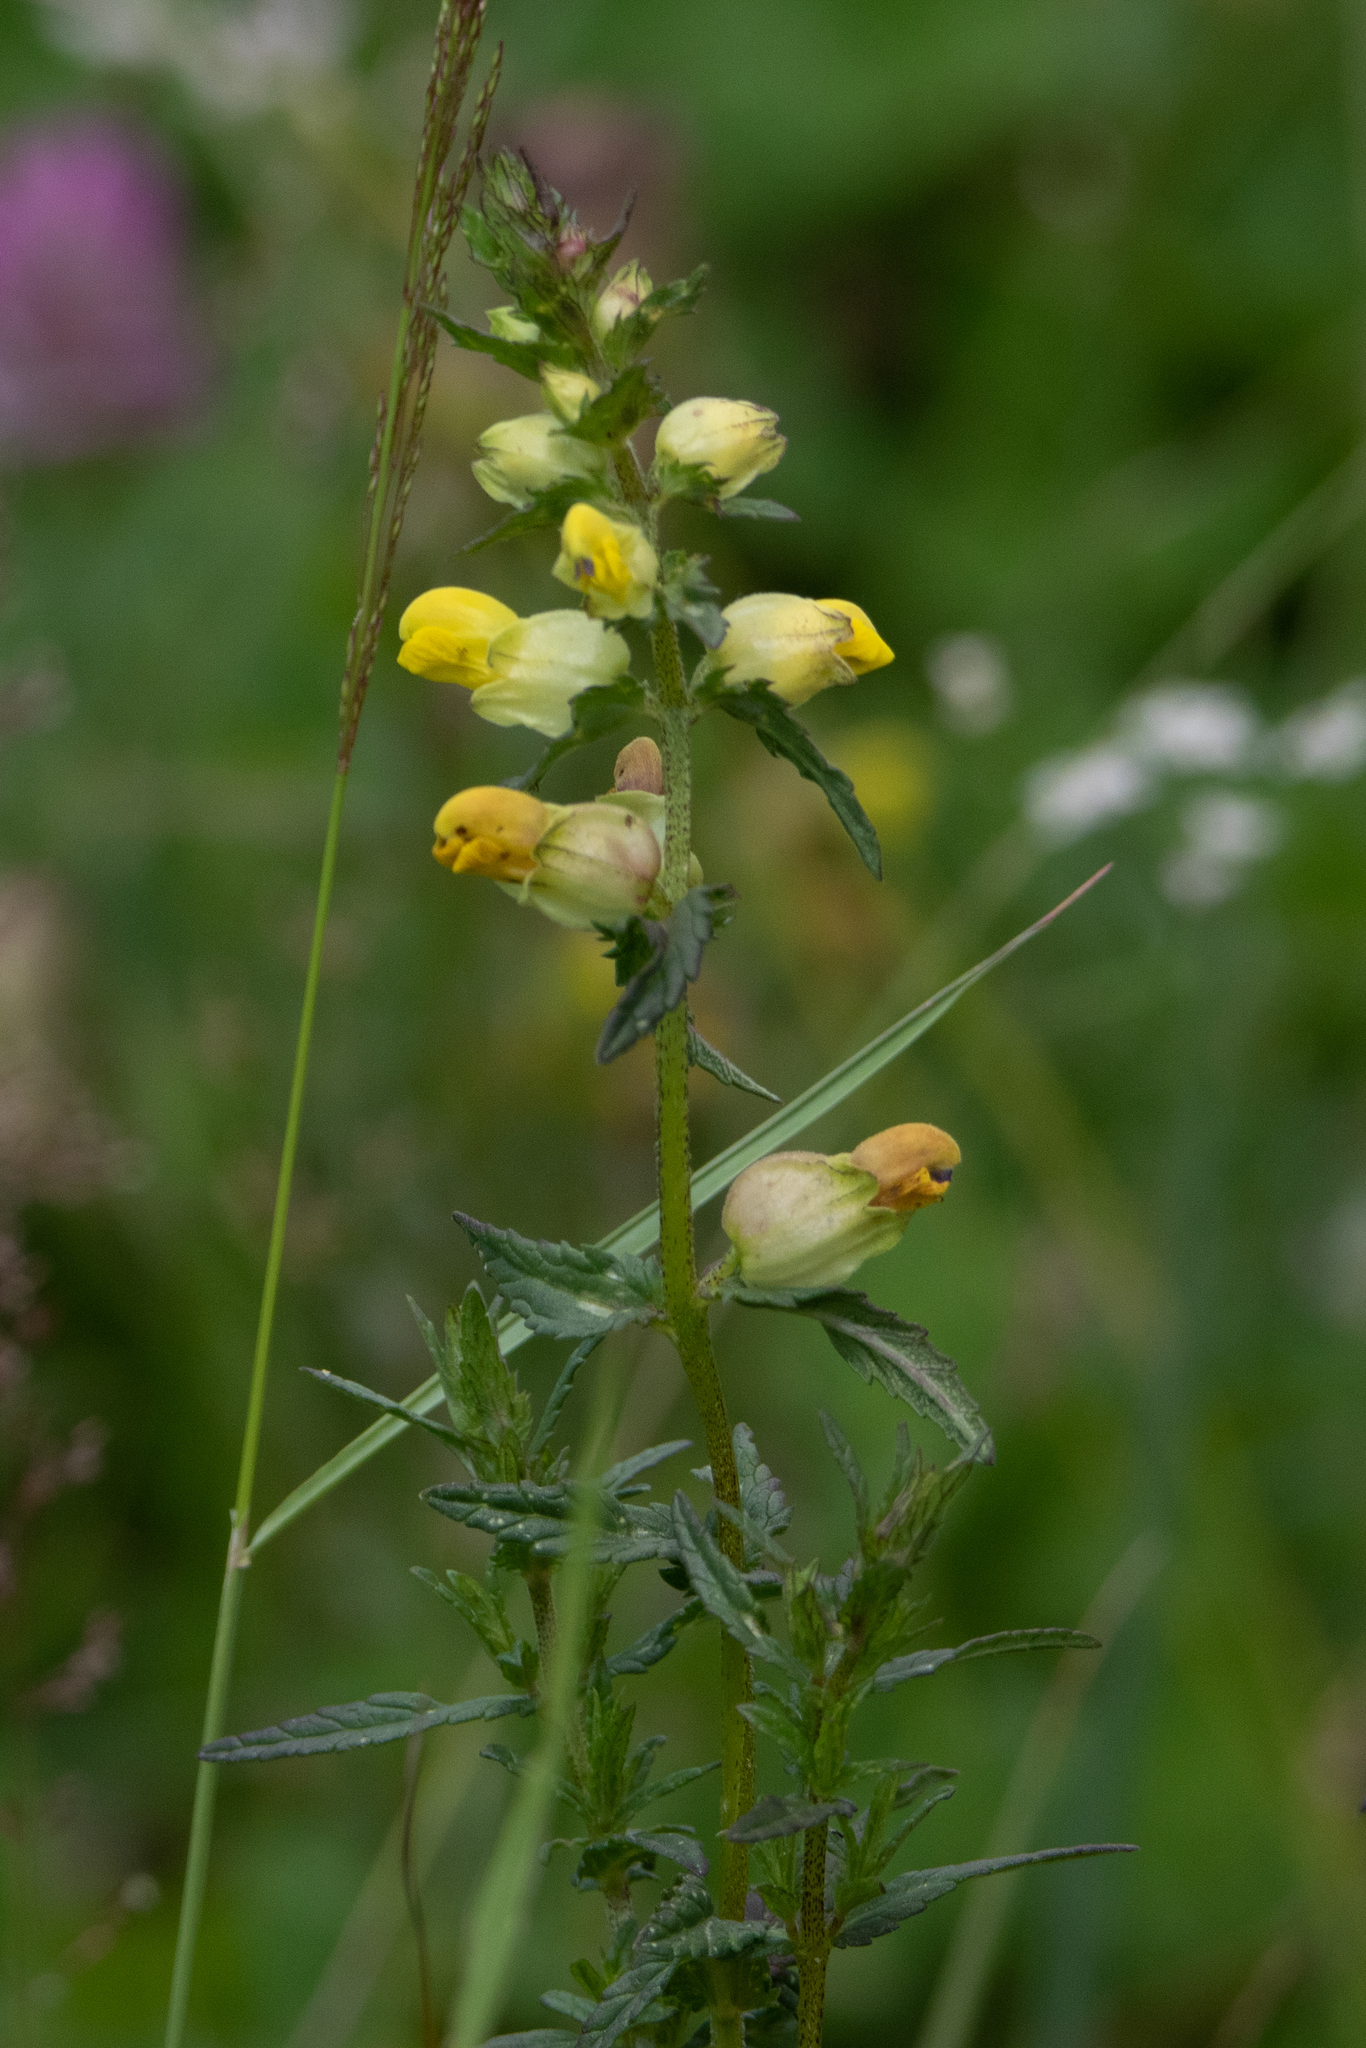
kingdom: Plantae
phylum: Tracheophyta
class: Magnoliopsida
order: Lamiales
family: Orobanchaceae
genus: Rhinanthus
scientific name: Rhinanthus serotinus
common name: Late-flowering yellow rattle
